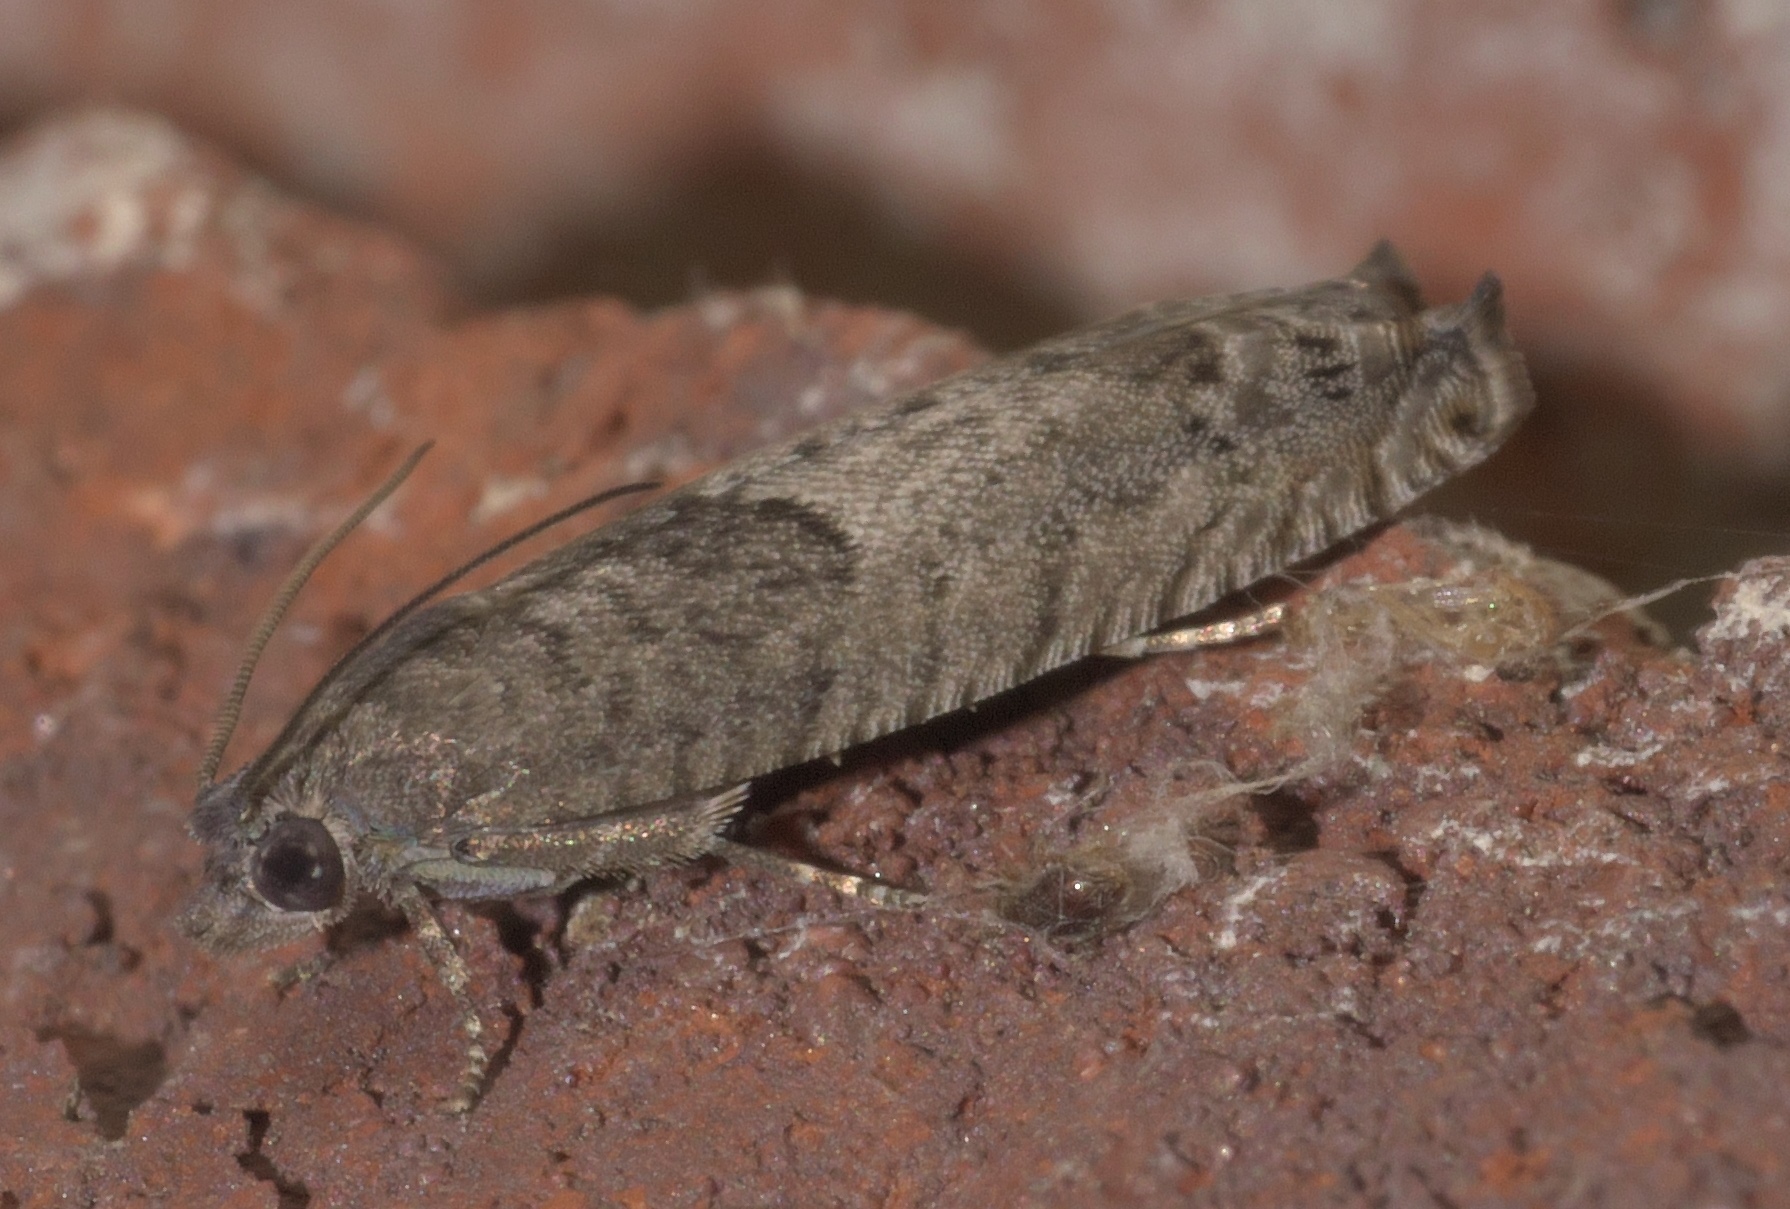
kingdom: Animalia
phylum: Arthropoda
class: Insecta
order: Lepidoptera
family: Tortricidae
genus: Pseudexentera
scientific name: Pseudexentera cressoniana
